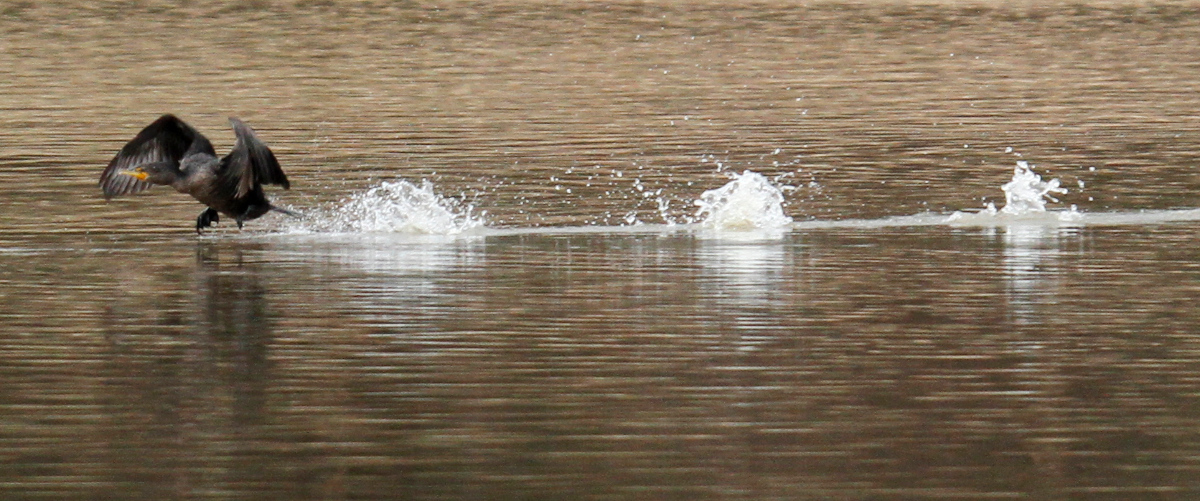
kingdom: Animalia
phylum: Chordata
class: Aves
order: Suliformes
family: Phalacrocoracidae
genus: Phalacrocorax
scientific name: Phalacrocorax auritus
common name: Double-crested cormorant
